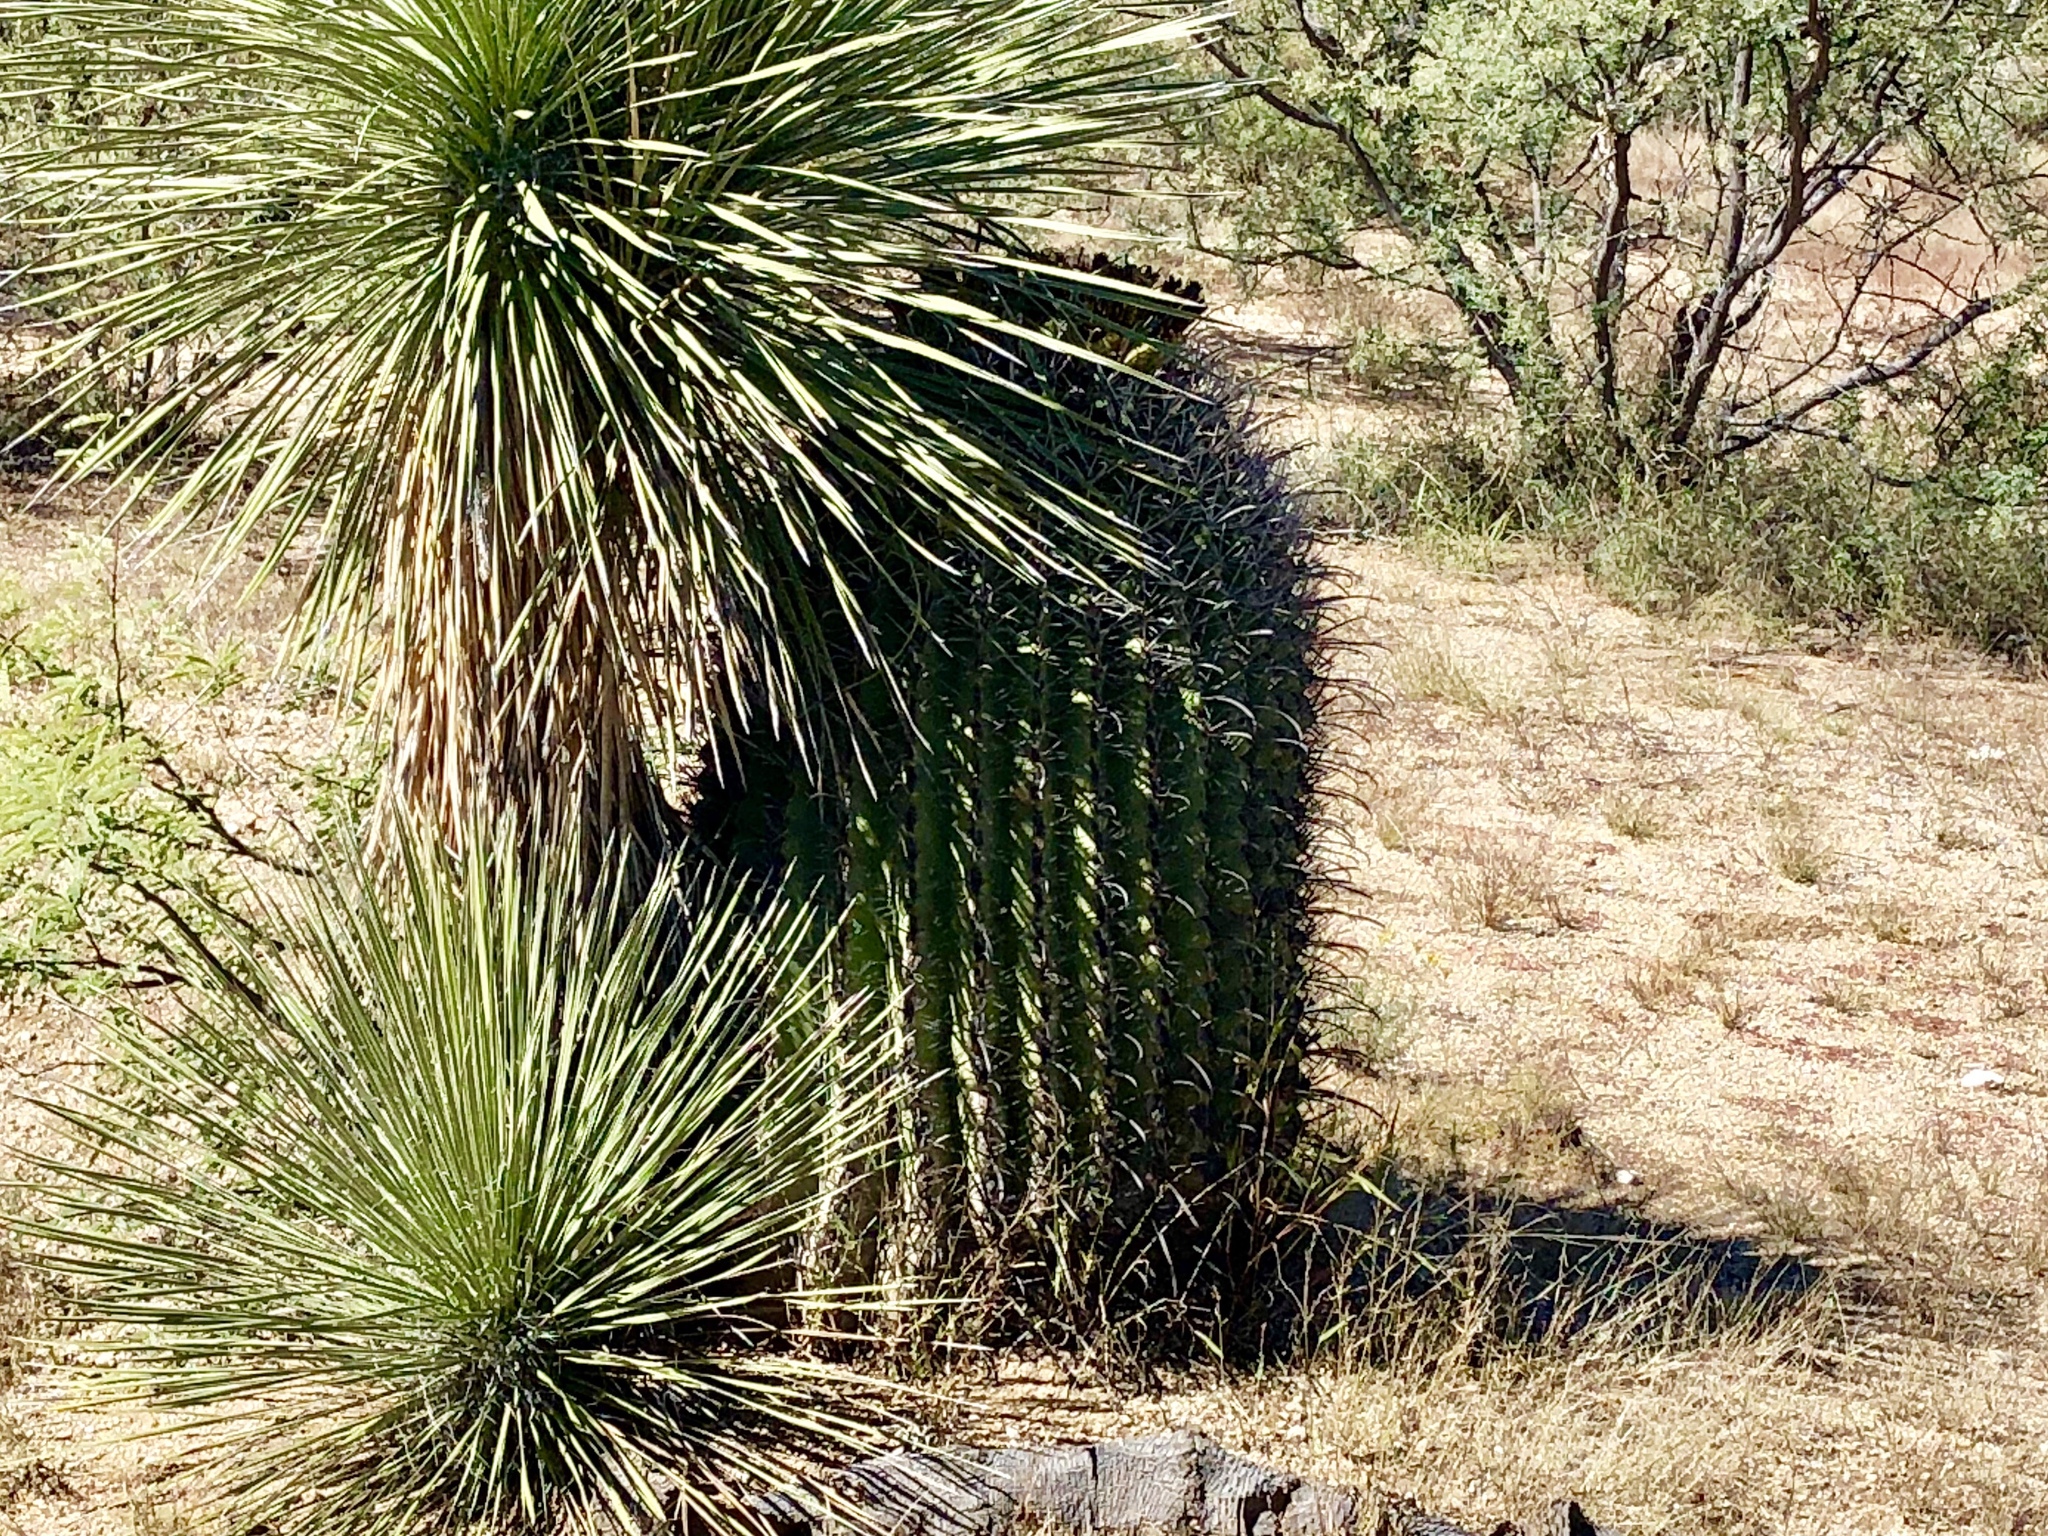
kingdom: Plantae
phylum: Tracheophyta
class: Magnoliopsida
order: Caryophyllales
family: Cactaceae
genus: Ferocactus
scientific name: Ferocactus wislizeni
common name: Candy barrel cactus
